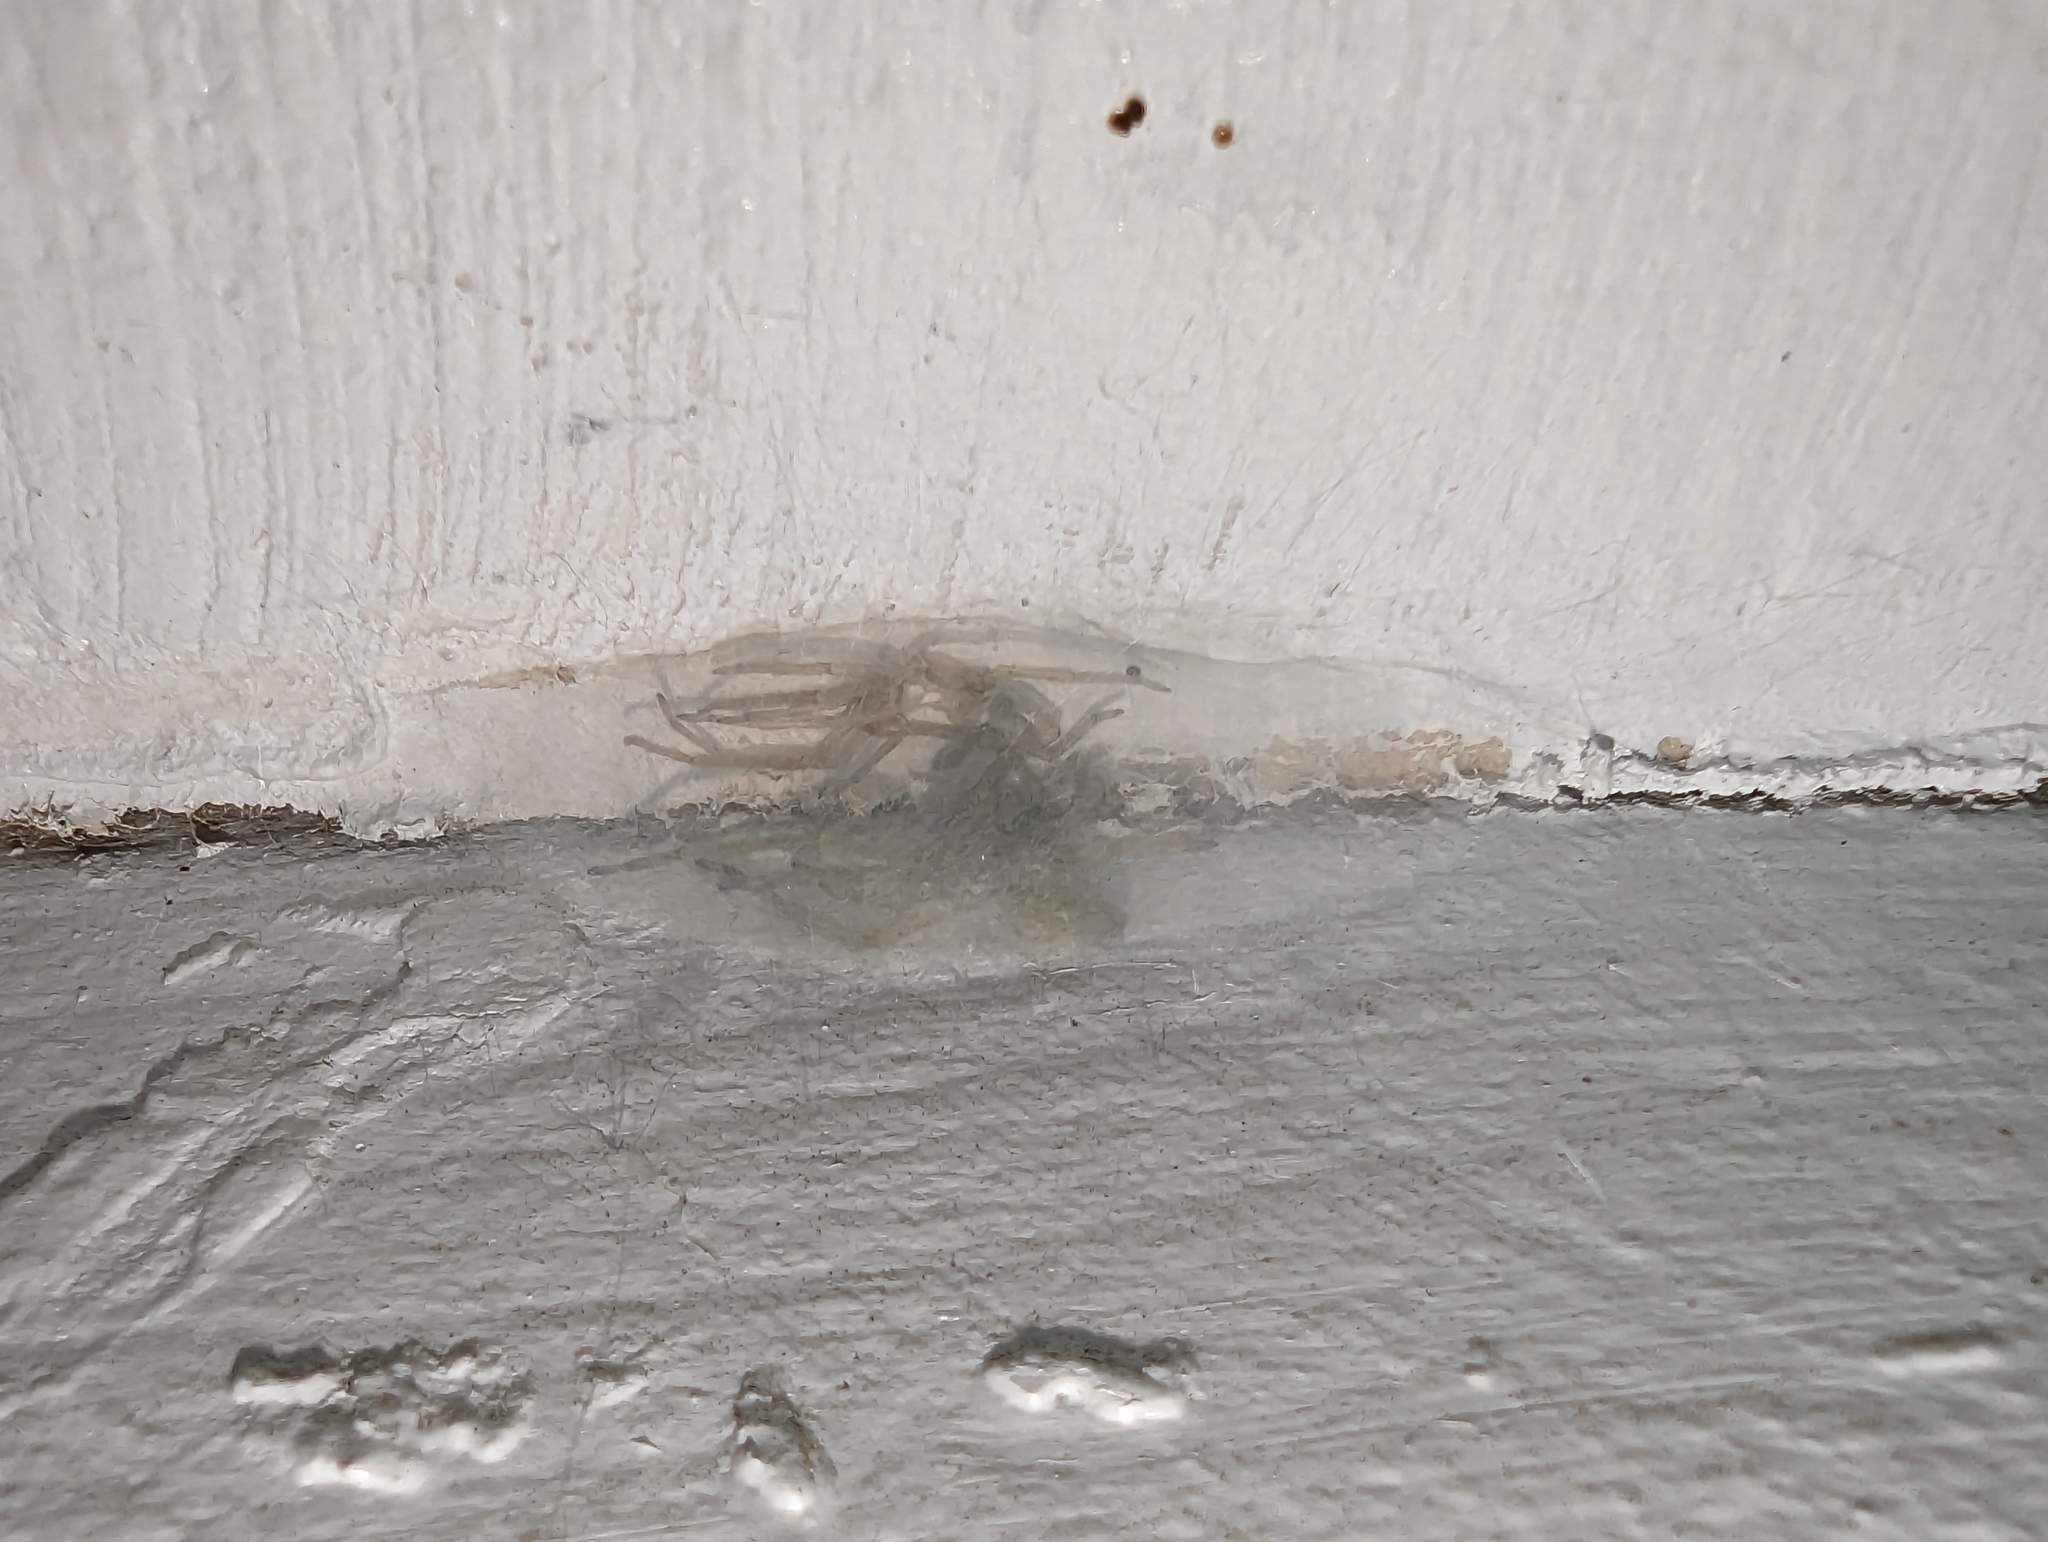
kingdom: Animalia
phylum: Arthropoda
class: Arachnida
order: Araneae
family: Cheiracanthiidae
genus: Cheiracanthium
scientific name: Cheiracanthium mildei
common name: Northern yellow sac spider
